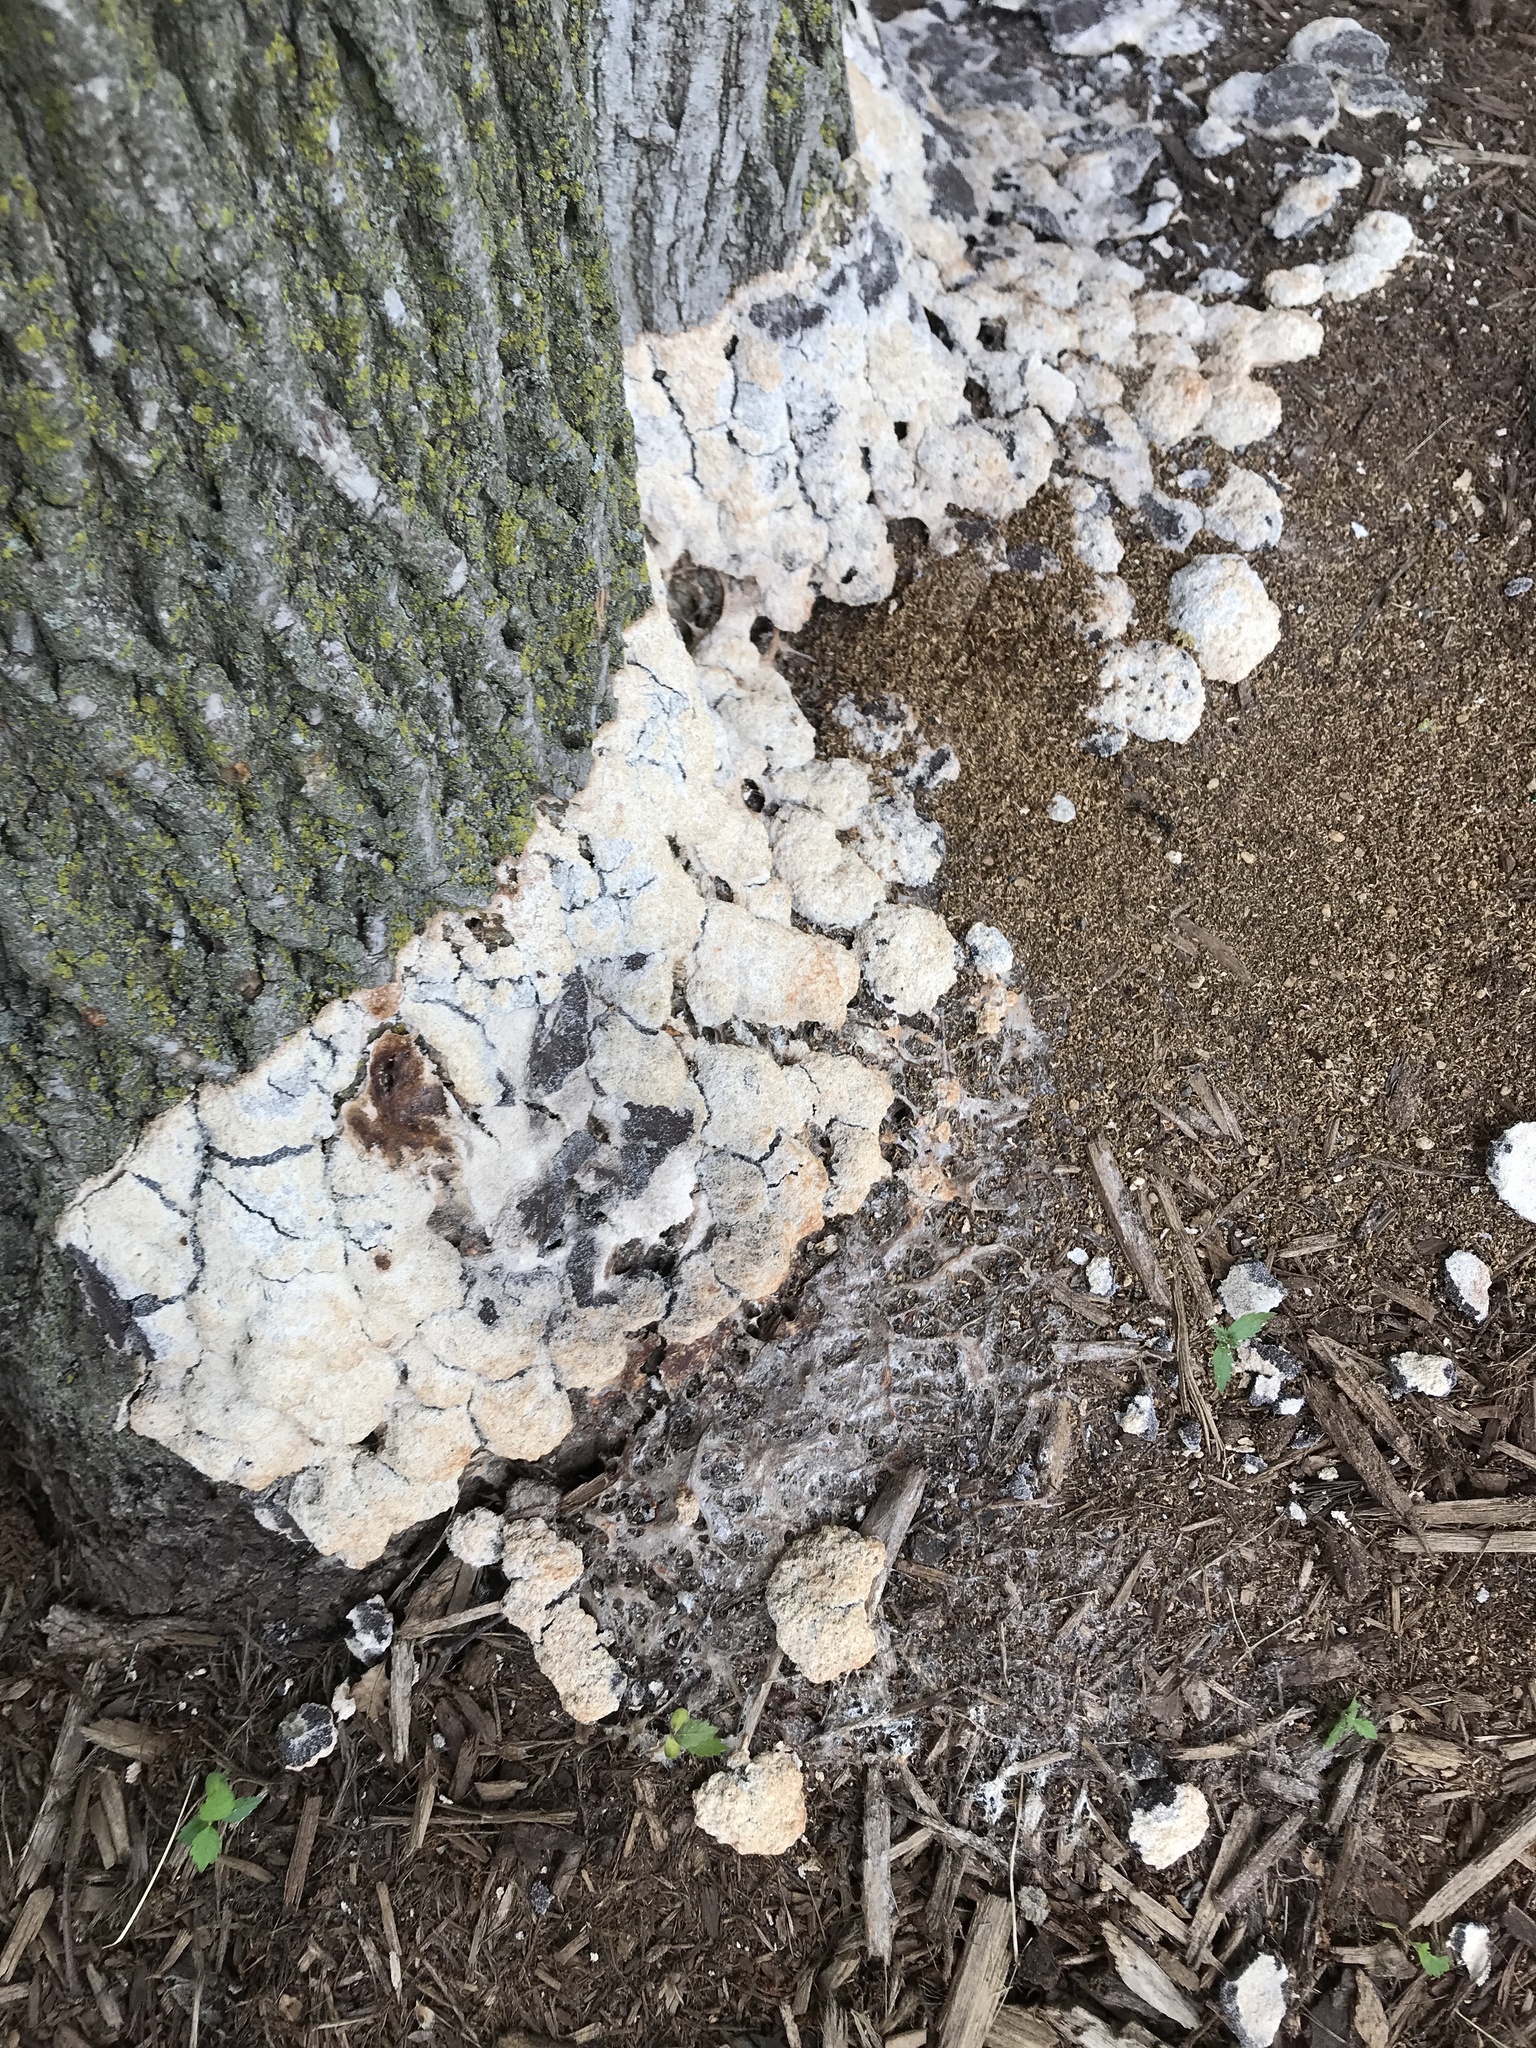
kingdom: Protozoa
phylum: Mycetozoa
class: Myxomycetes
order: Physarales
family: Physaraceae
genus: Fuligo
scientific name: Fuligo septica
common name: Dog vomit slime mold
